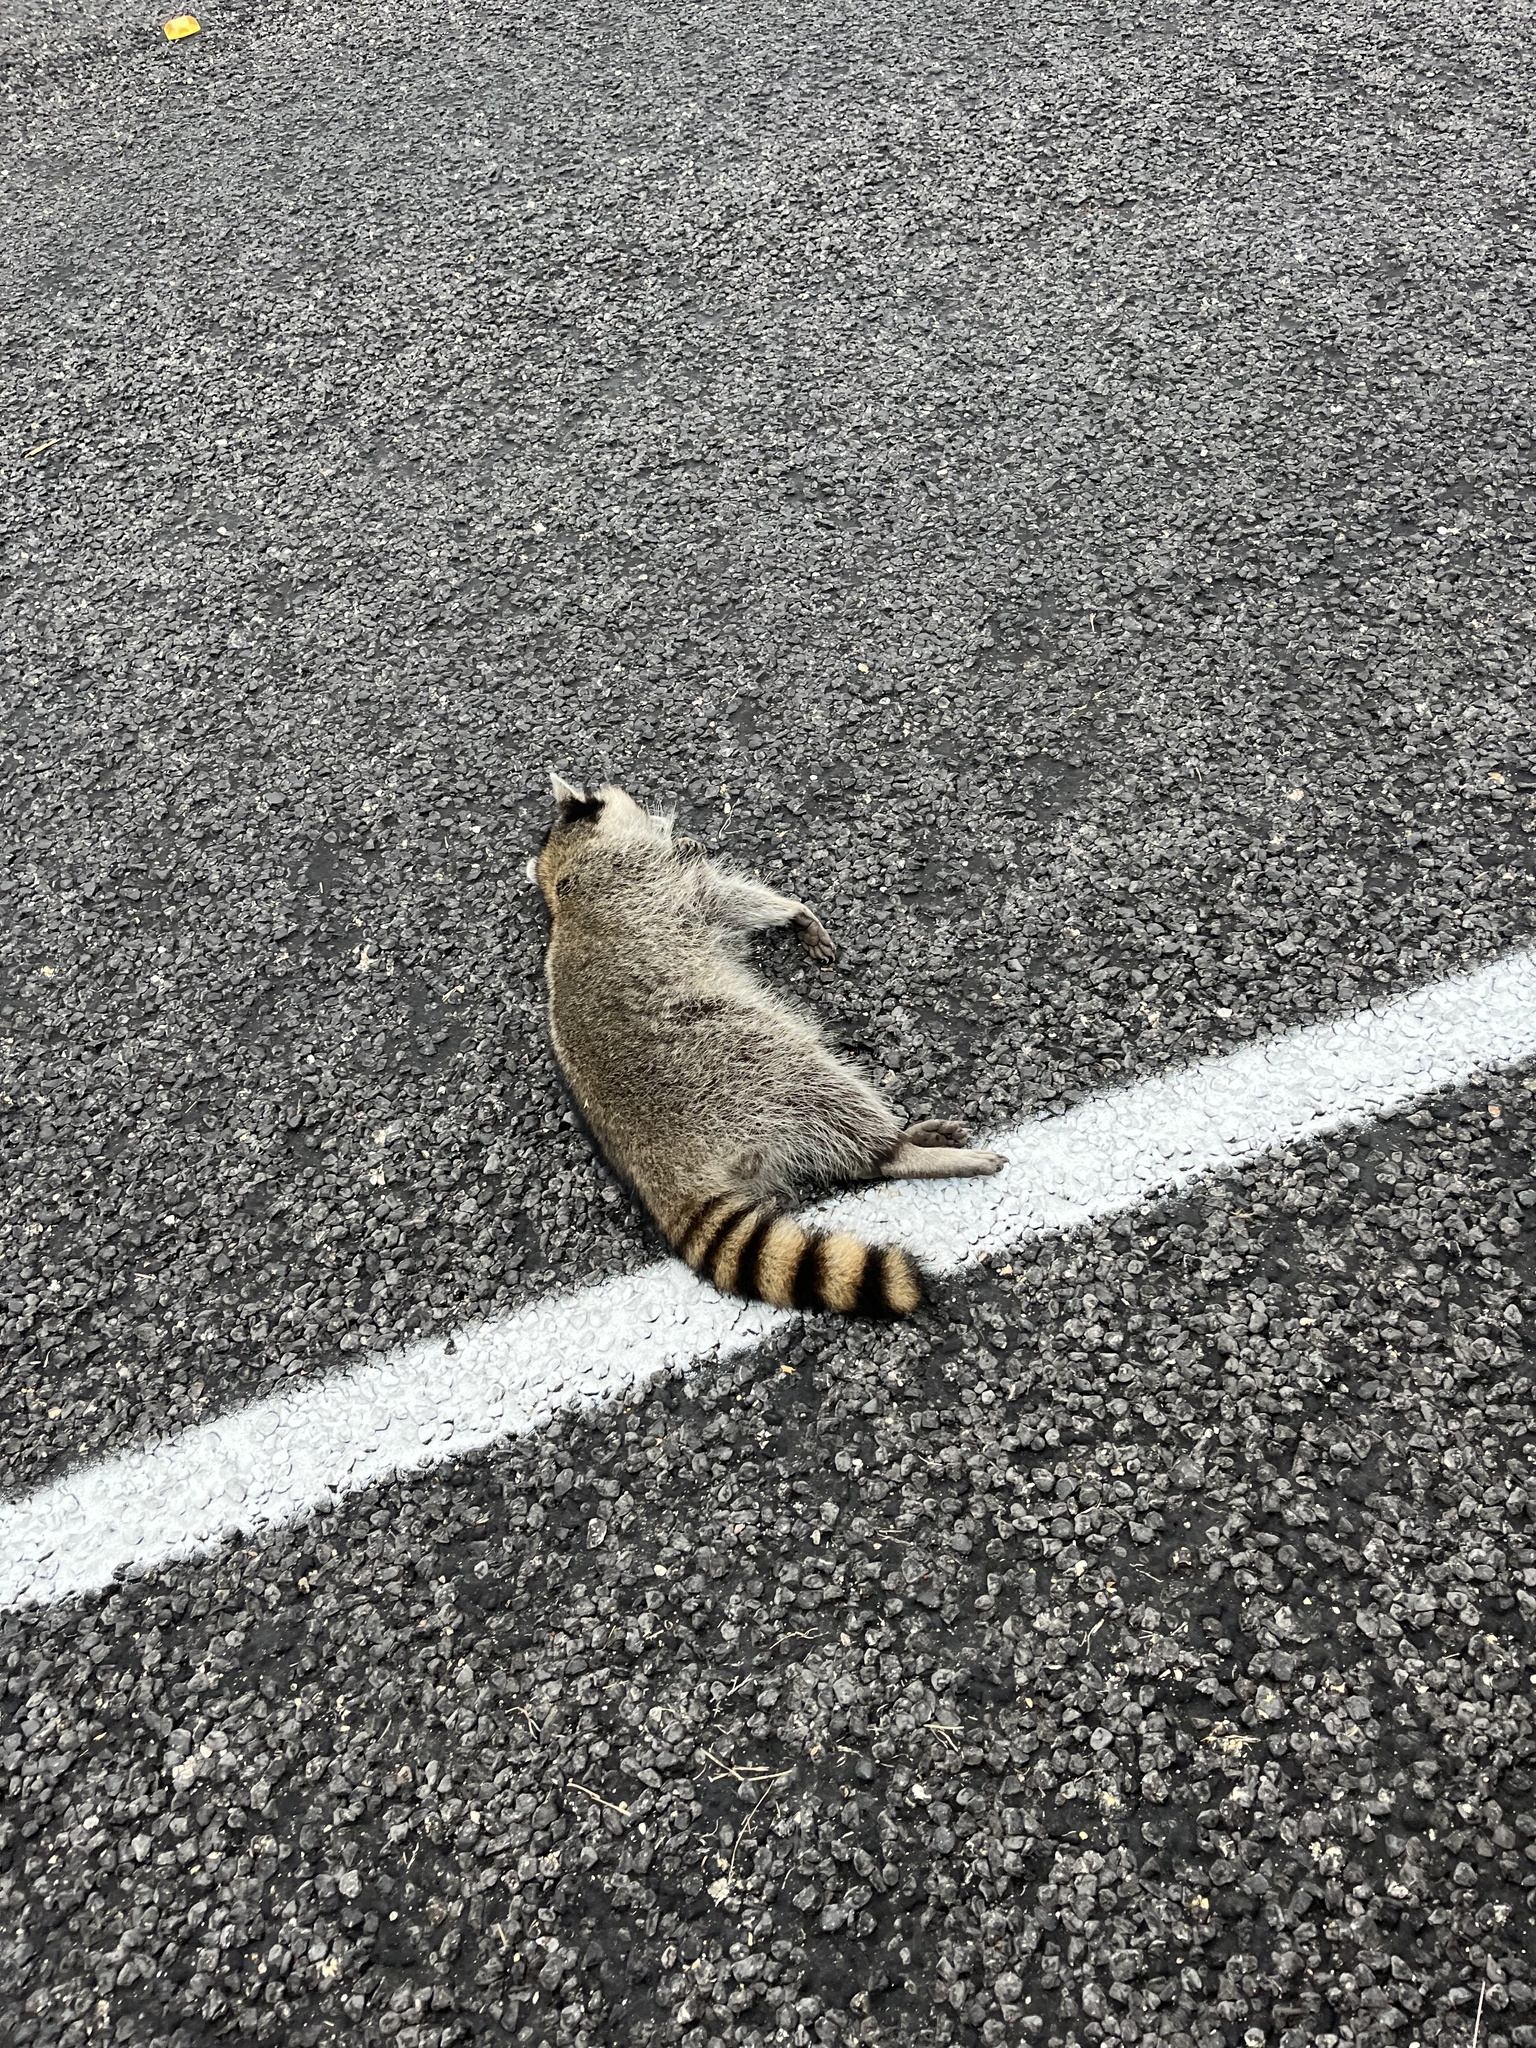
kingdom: Animalia
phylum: Chordata
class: Mammalia
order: Carnivora
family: Procyonidae
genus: Procyon
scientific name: Procyon lotor
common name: Raccoon
